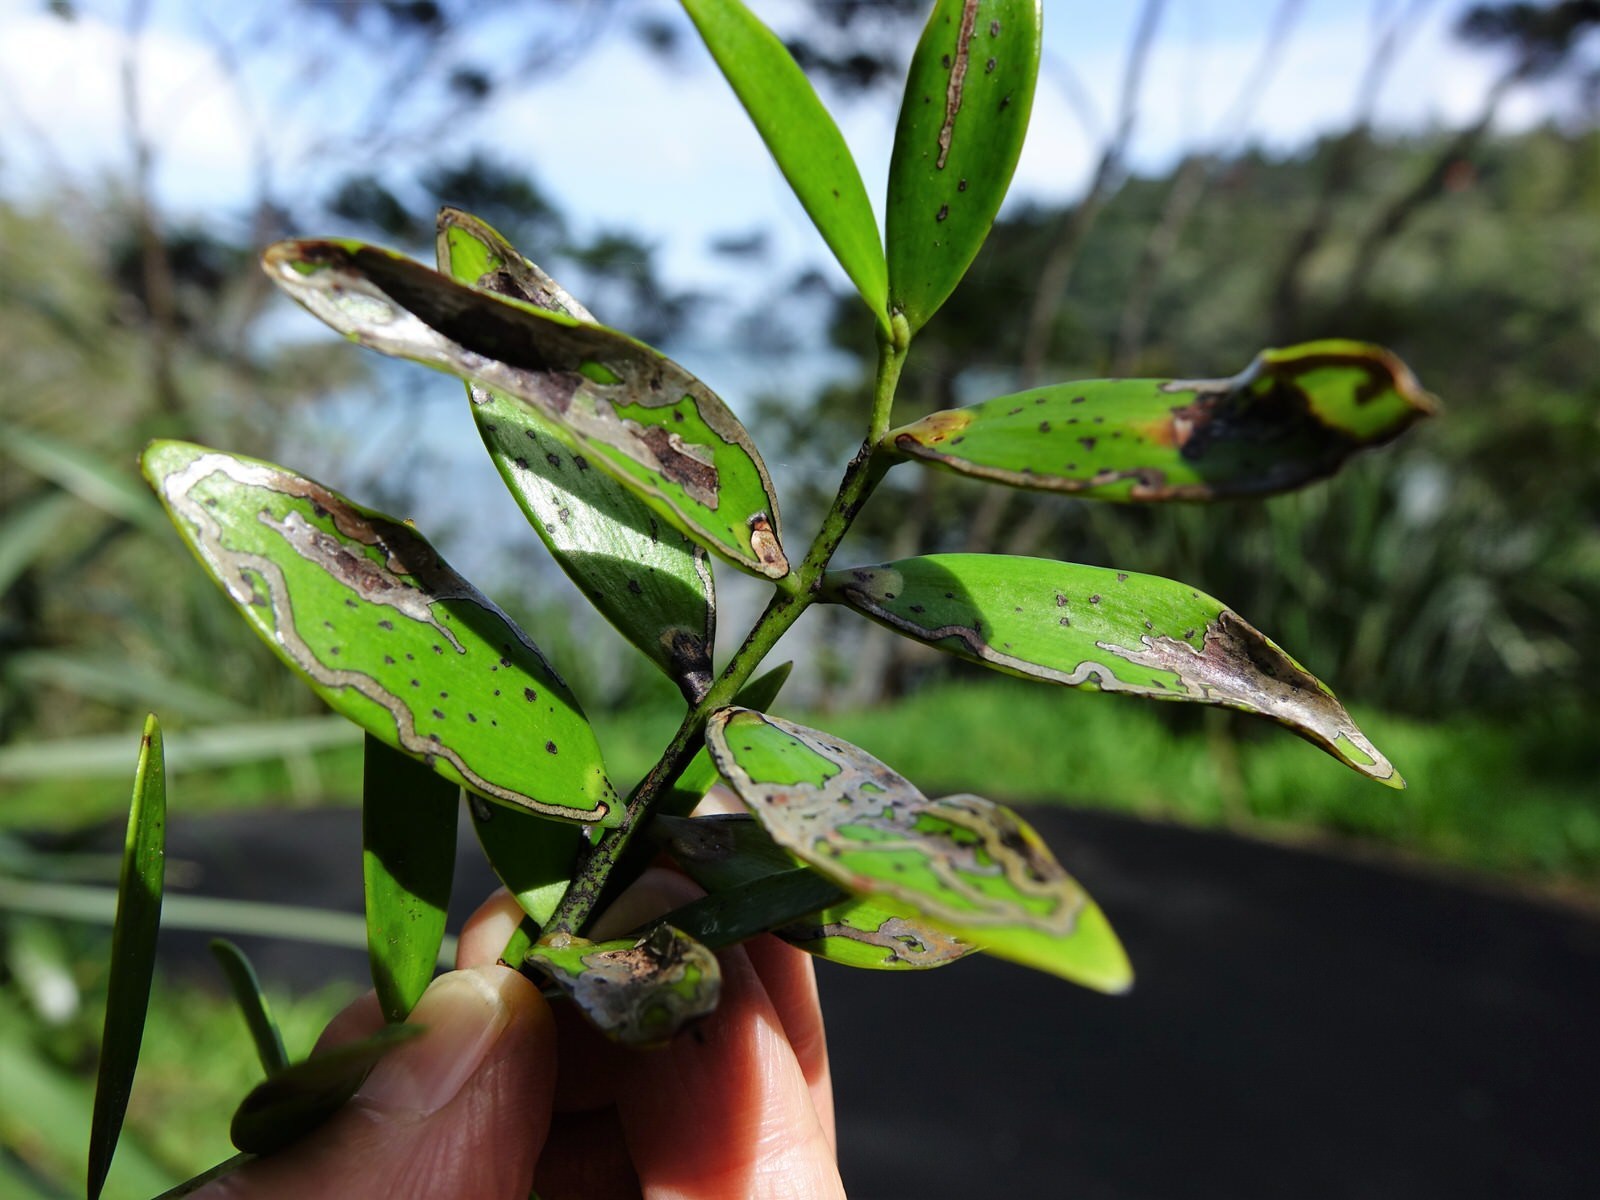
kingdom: Animalia
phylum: Arthropoda
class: Insecta
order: Lepidoptera
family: Gracillariidae
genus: Acrocercops
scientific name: Acrocercops leucotoma
